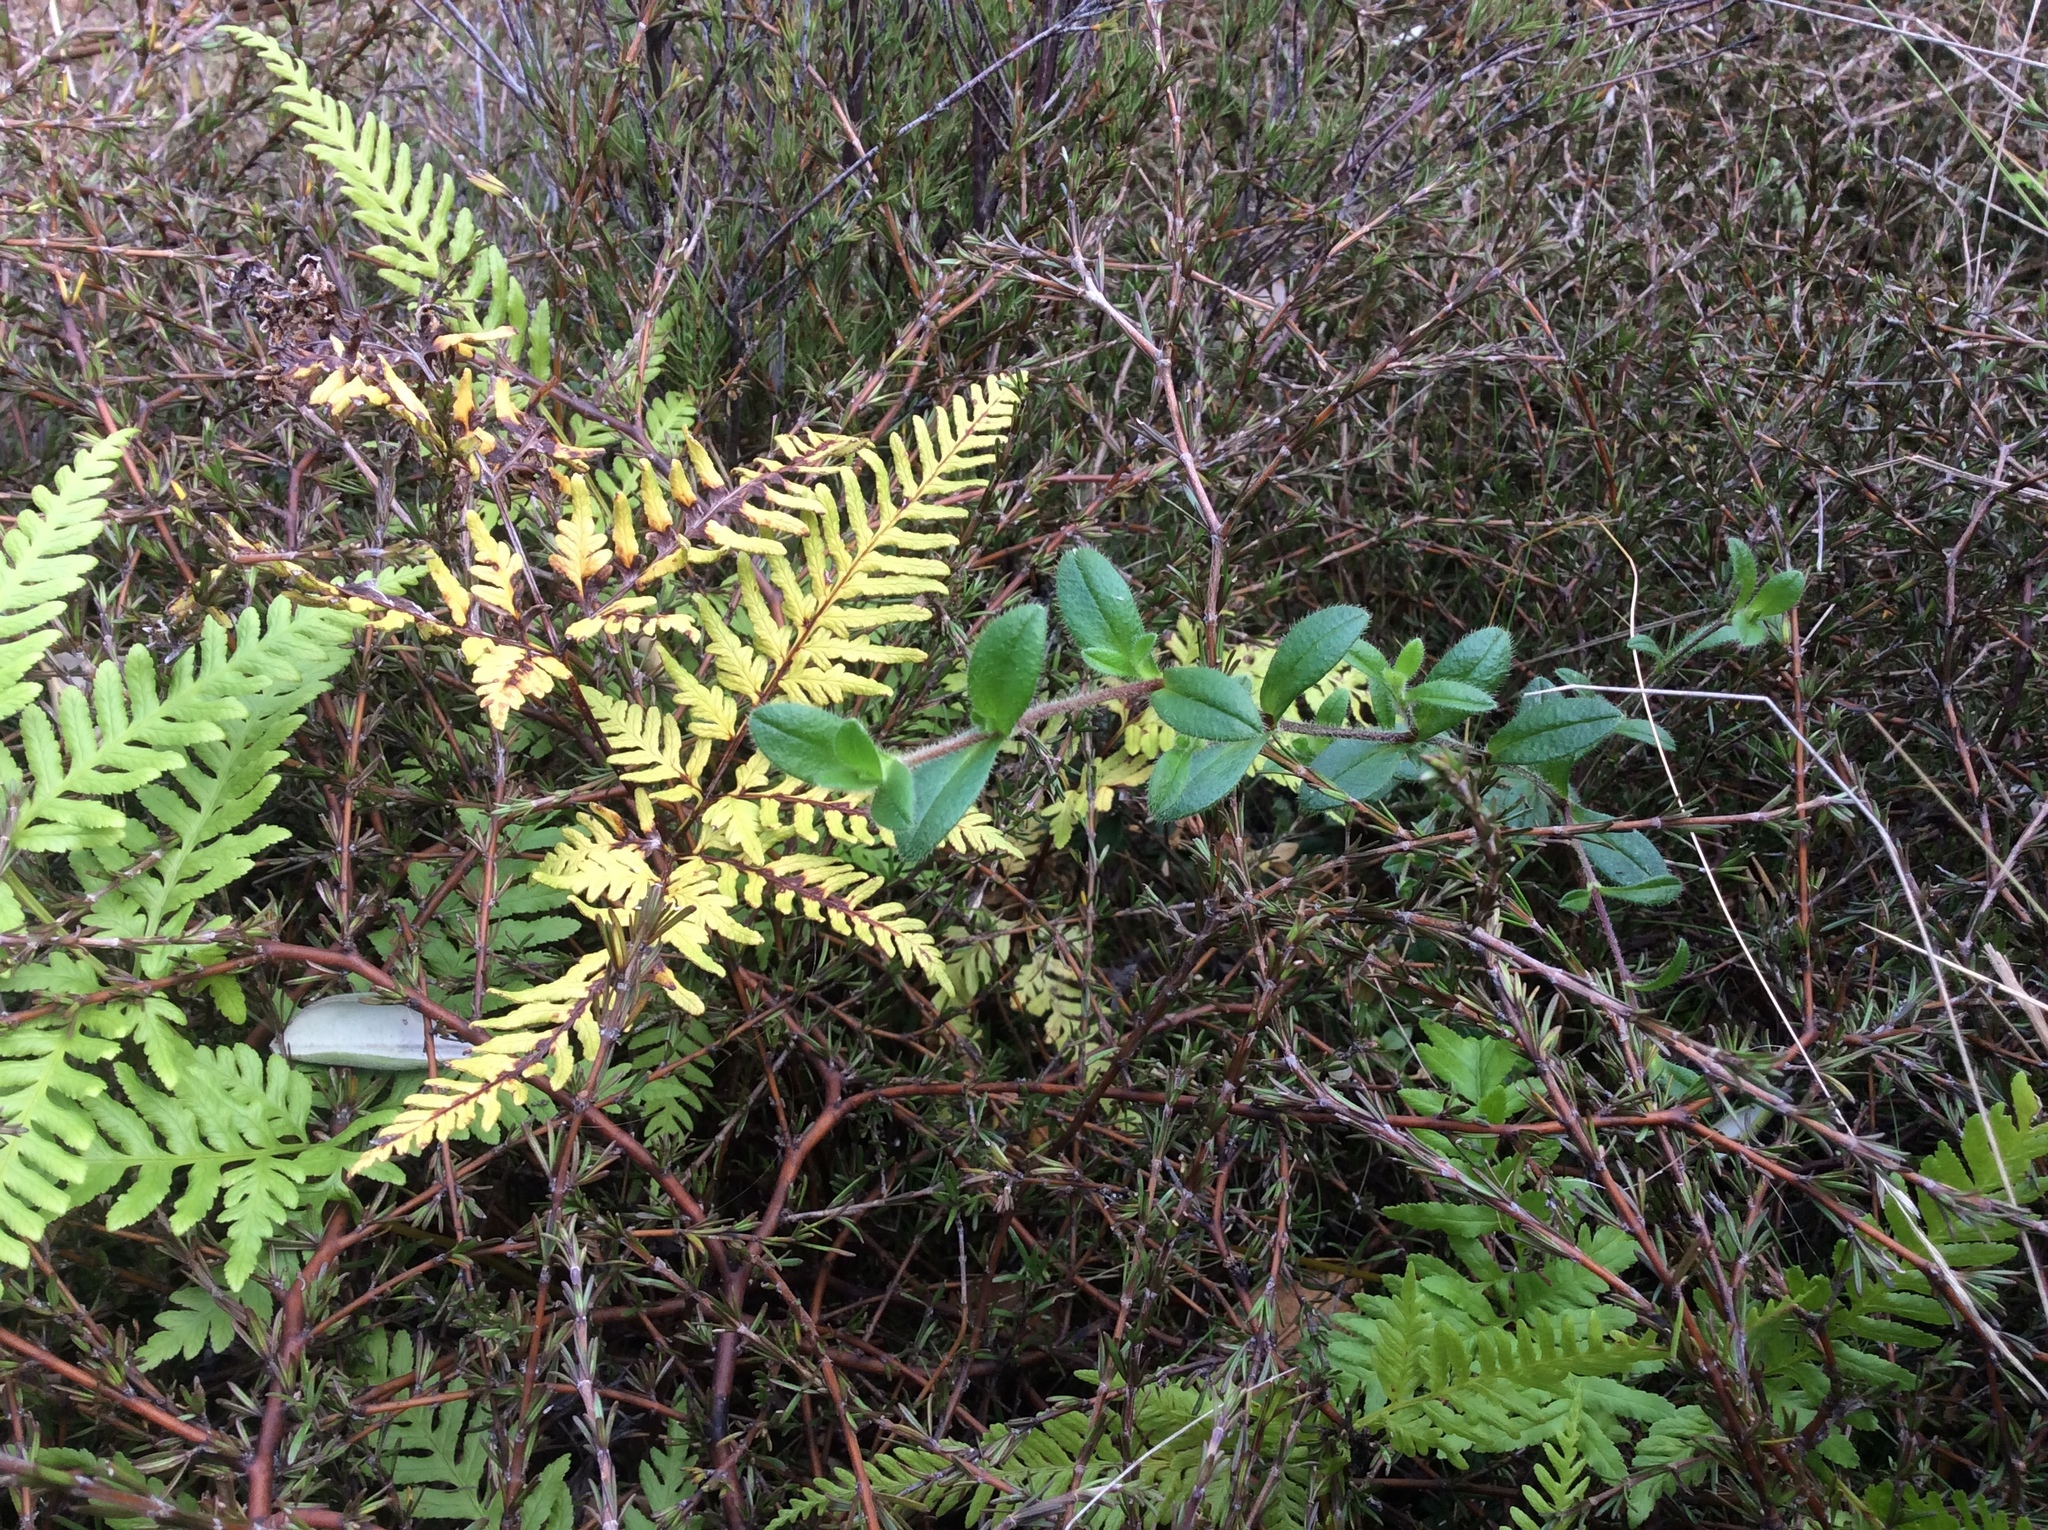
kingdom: Plantae
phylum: Tracheophyta
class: Magnoliopsida
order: Caryophyllales
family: Caryophyllaceae
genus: Cerastium
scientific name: Cerastium fontanum
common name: Common mouse-ear
